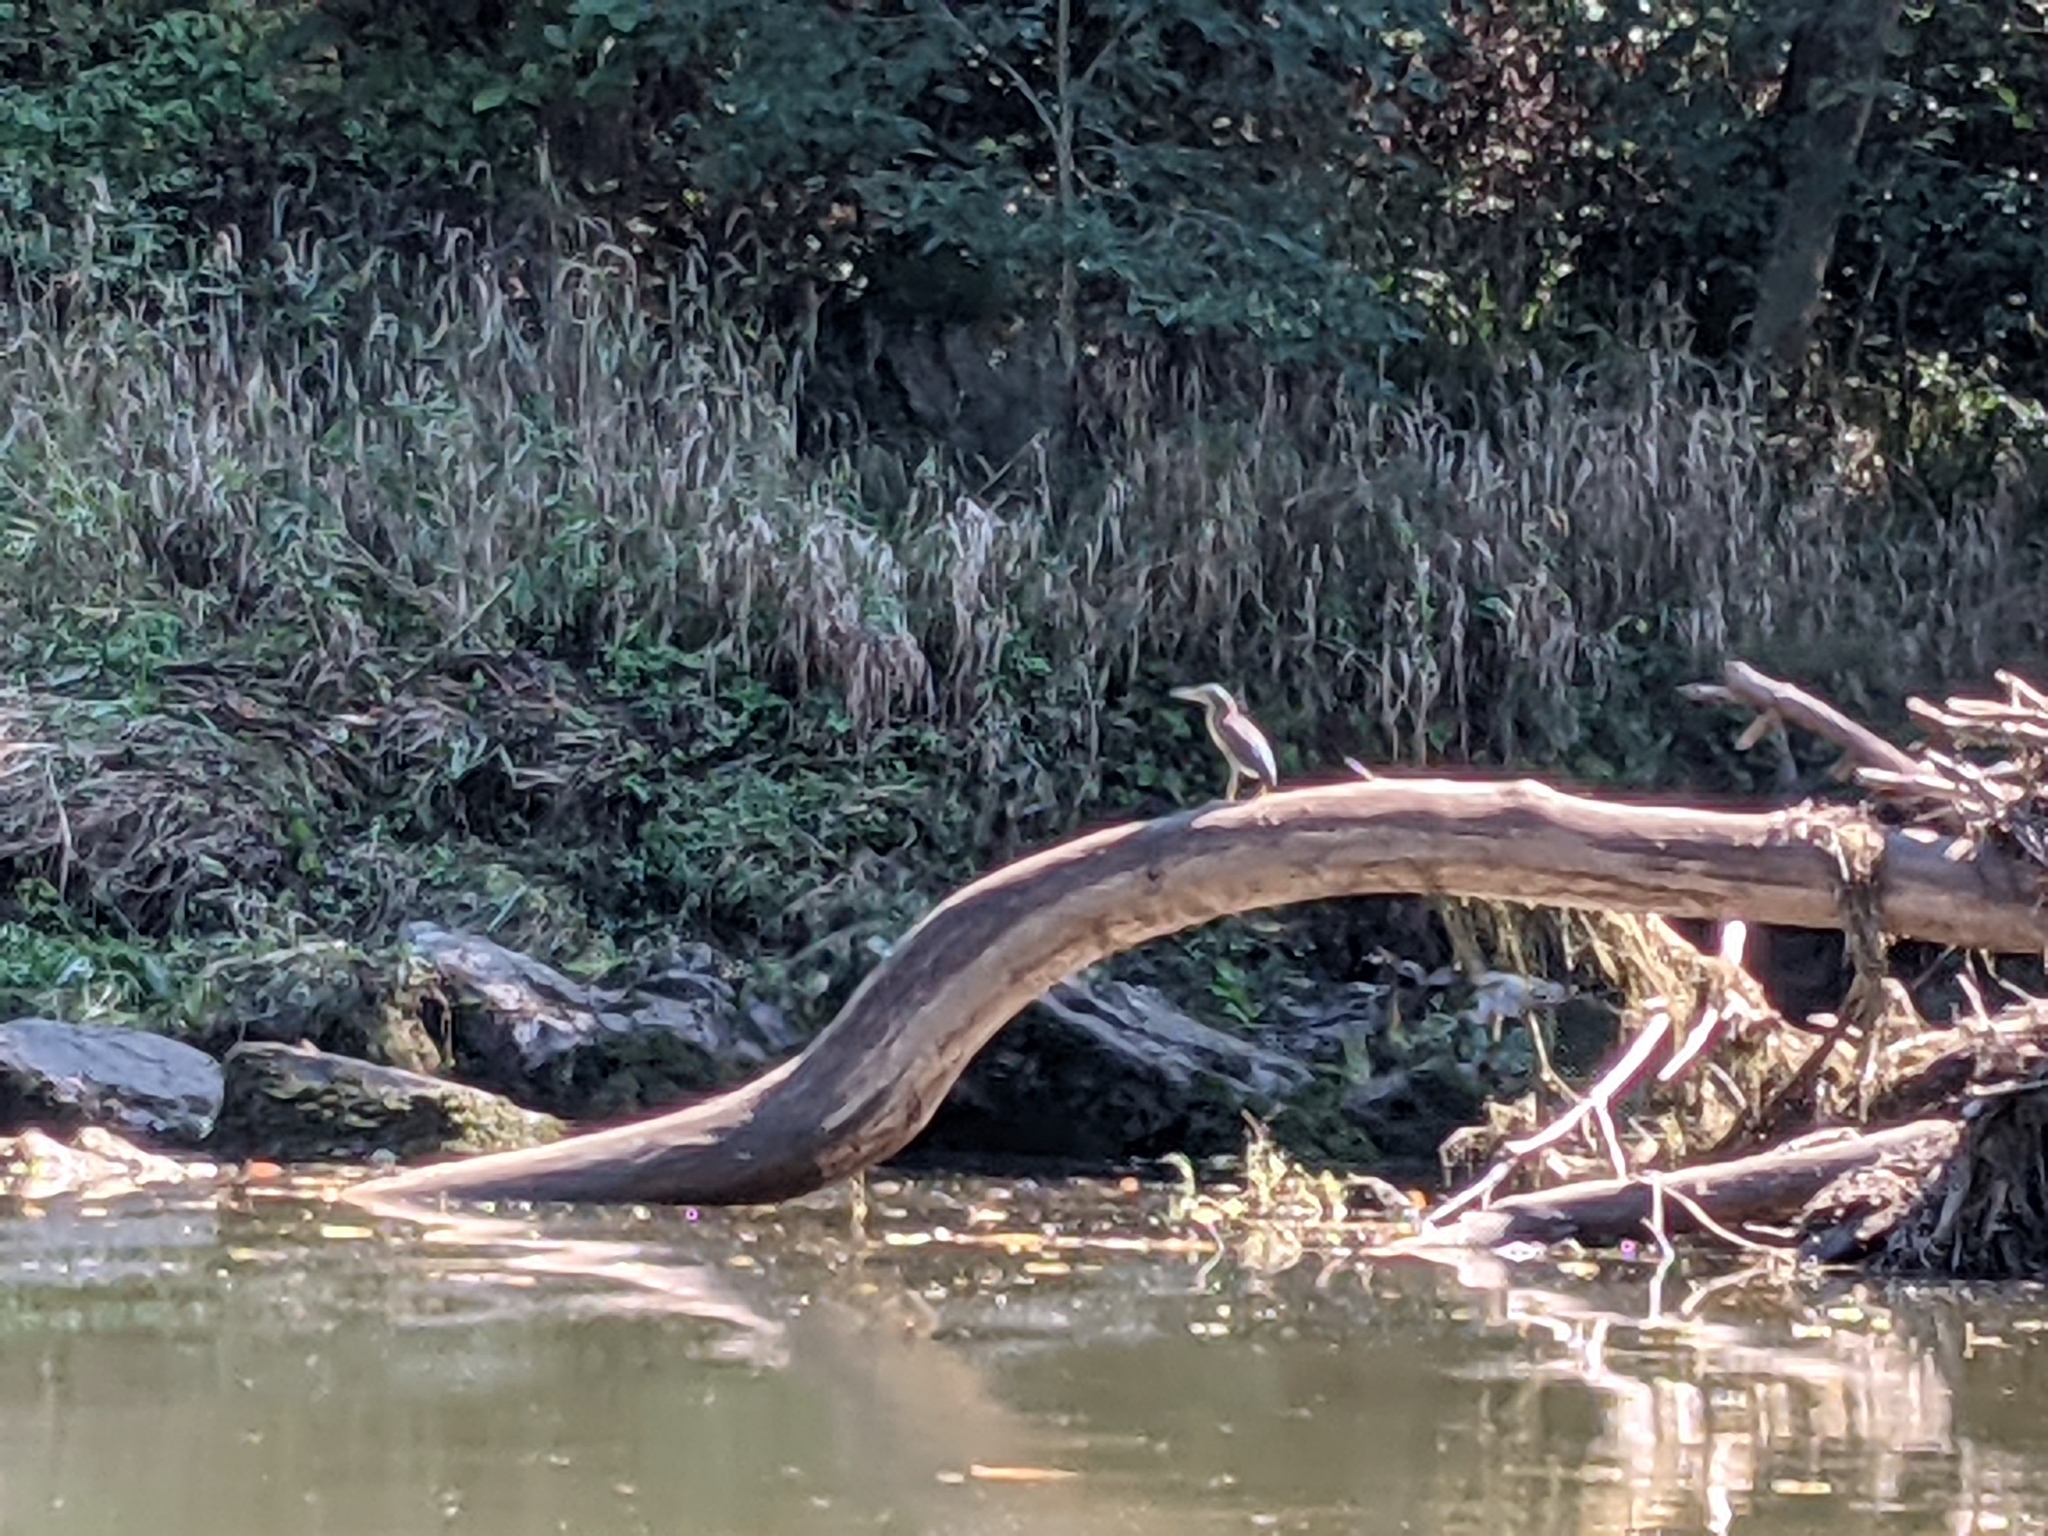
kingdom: Animalia
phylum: Chordata
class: Aves
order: Pelecaniformes
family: Ardeidae
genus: Butorides
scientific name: Butorides virescens
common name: Green heron
